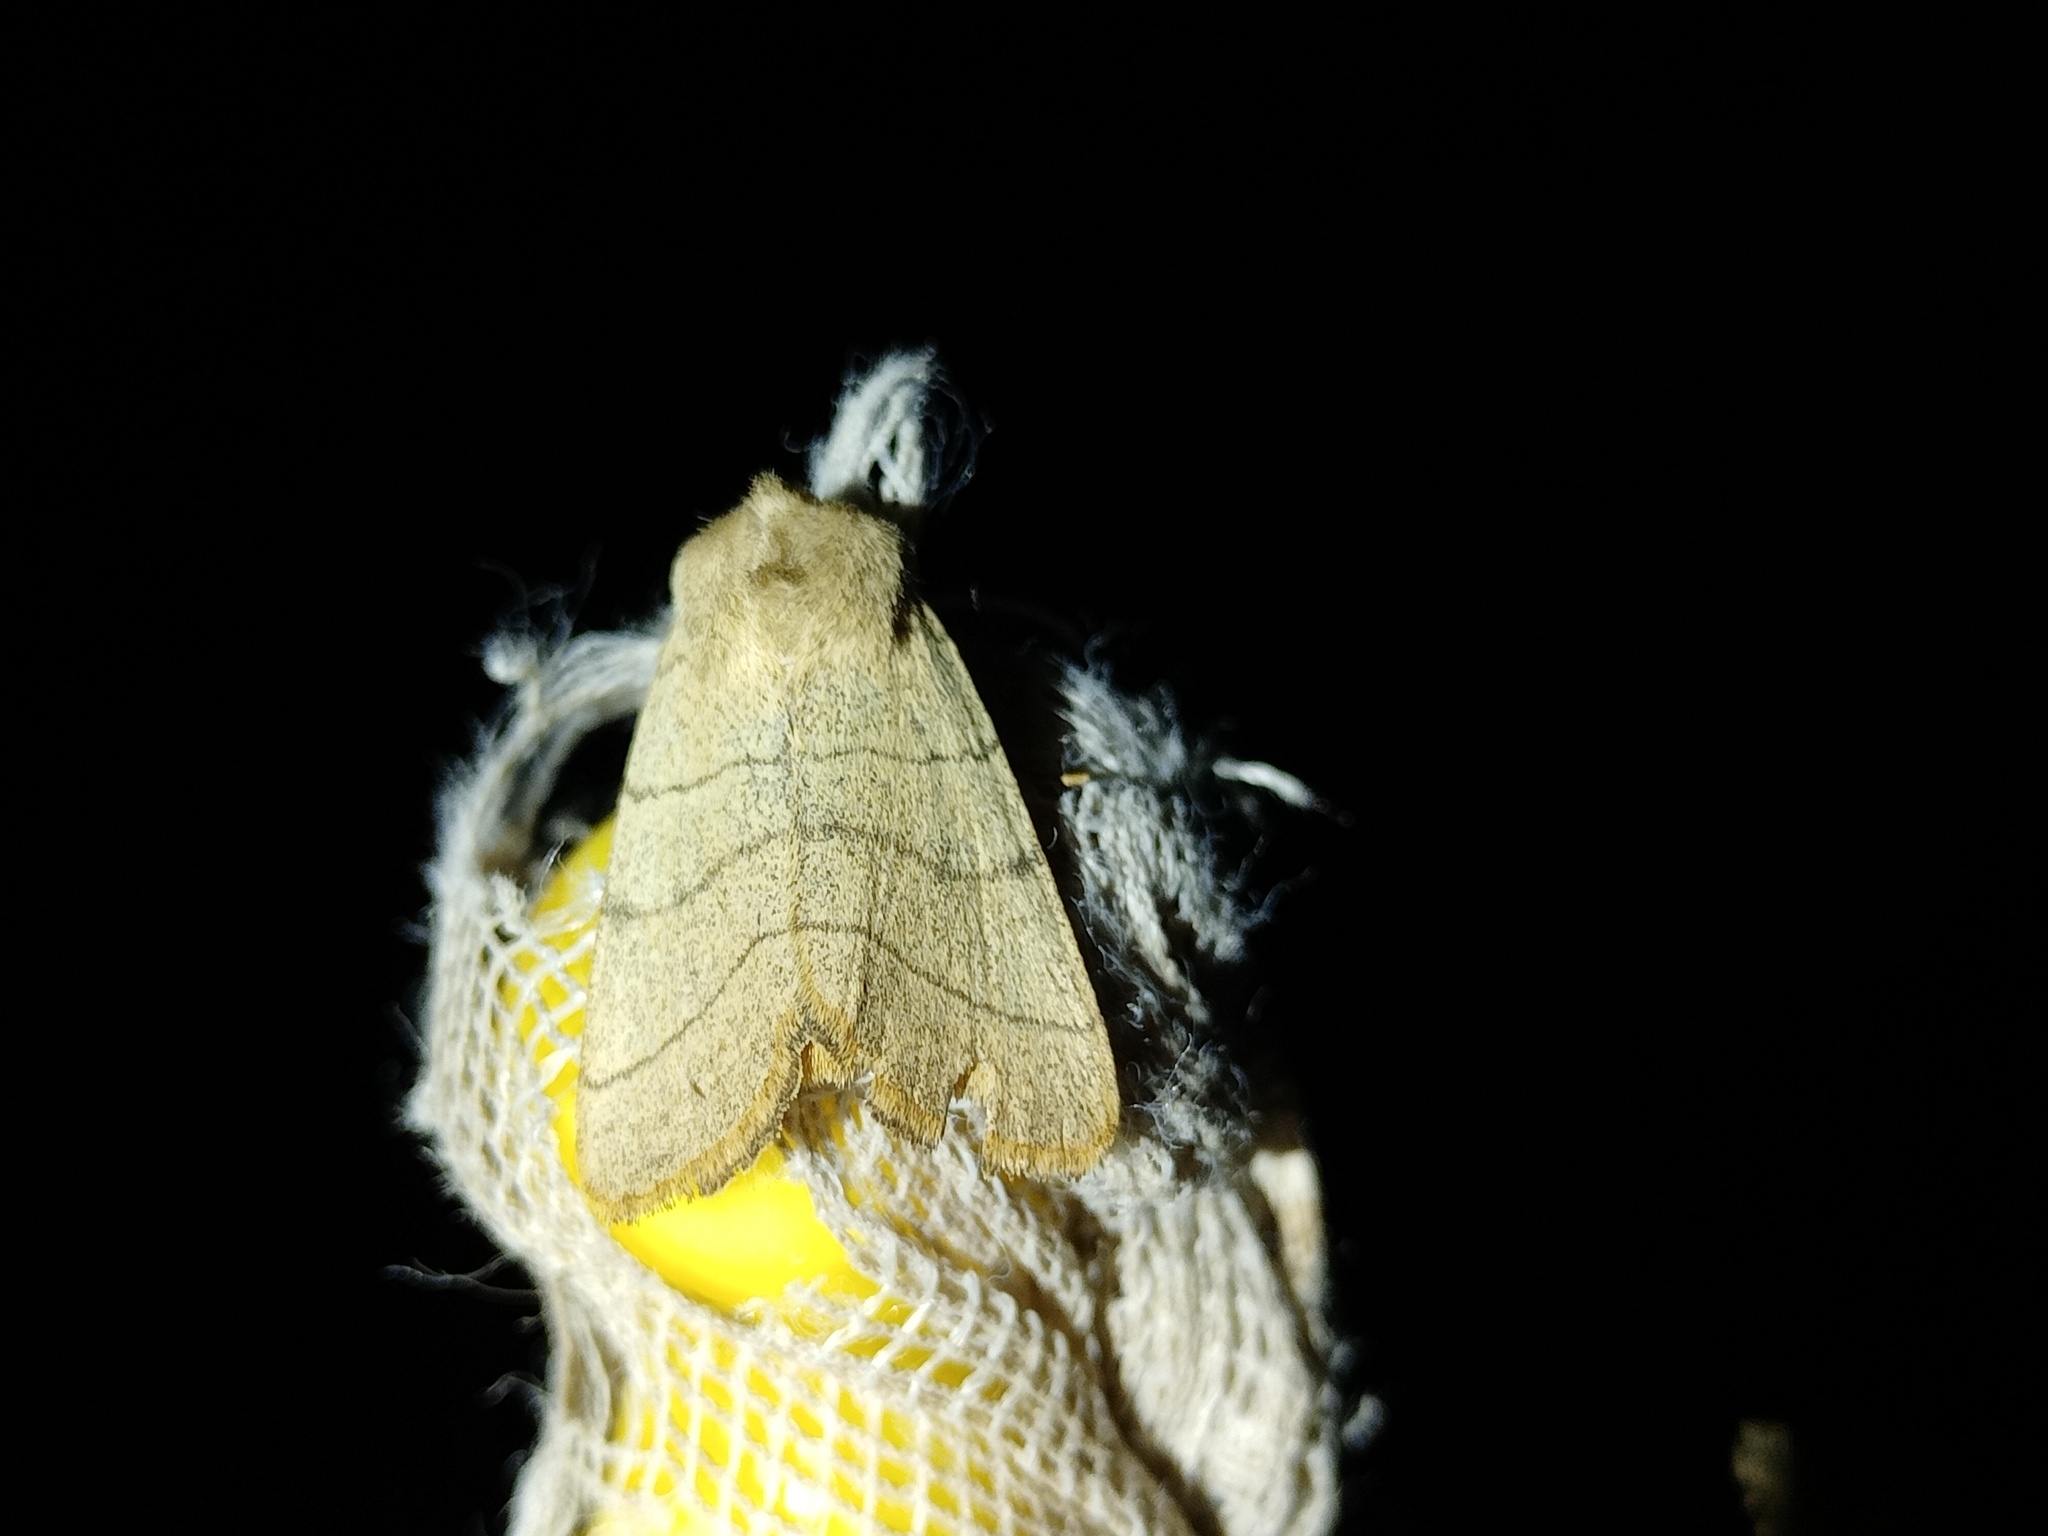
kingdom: Animalia
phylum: Arthropoda
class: Insecta
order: Lepidoptera
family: Noctuidae
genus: Charanyca
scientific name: Charanyca trigrammica
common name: Treble lines
